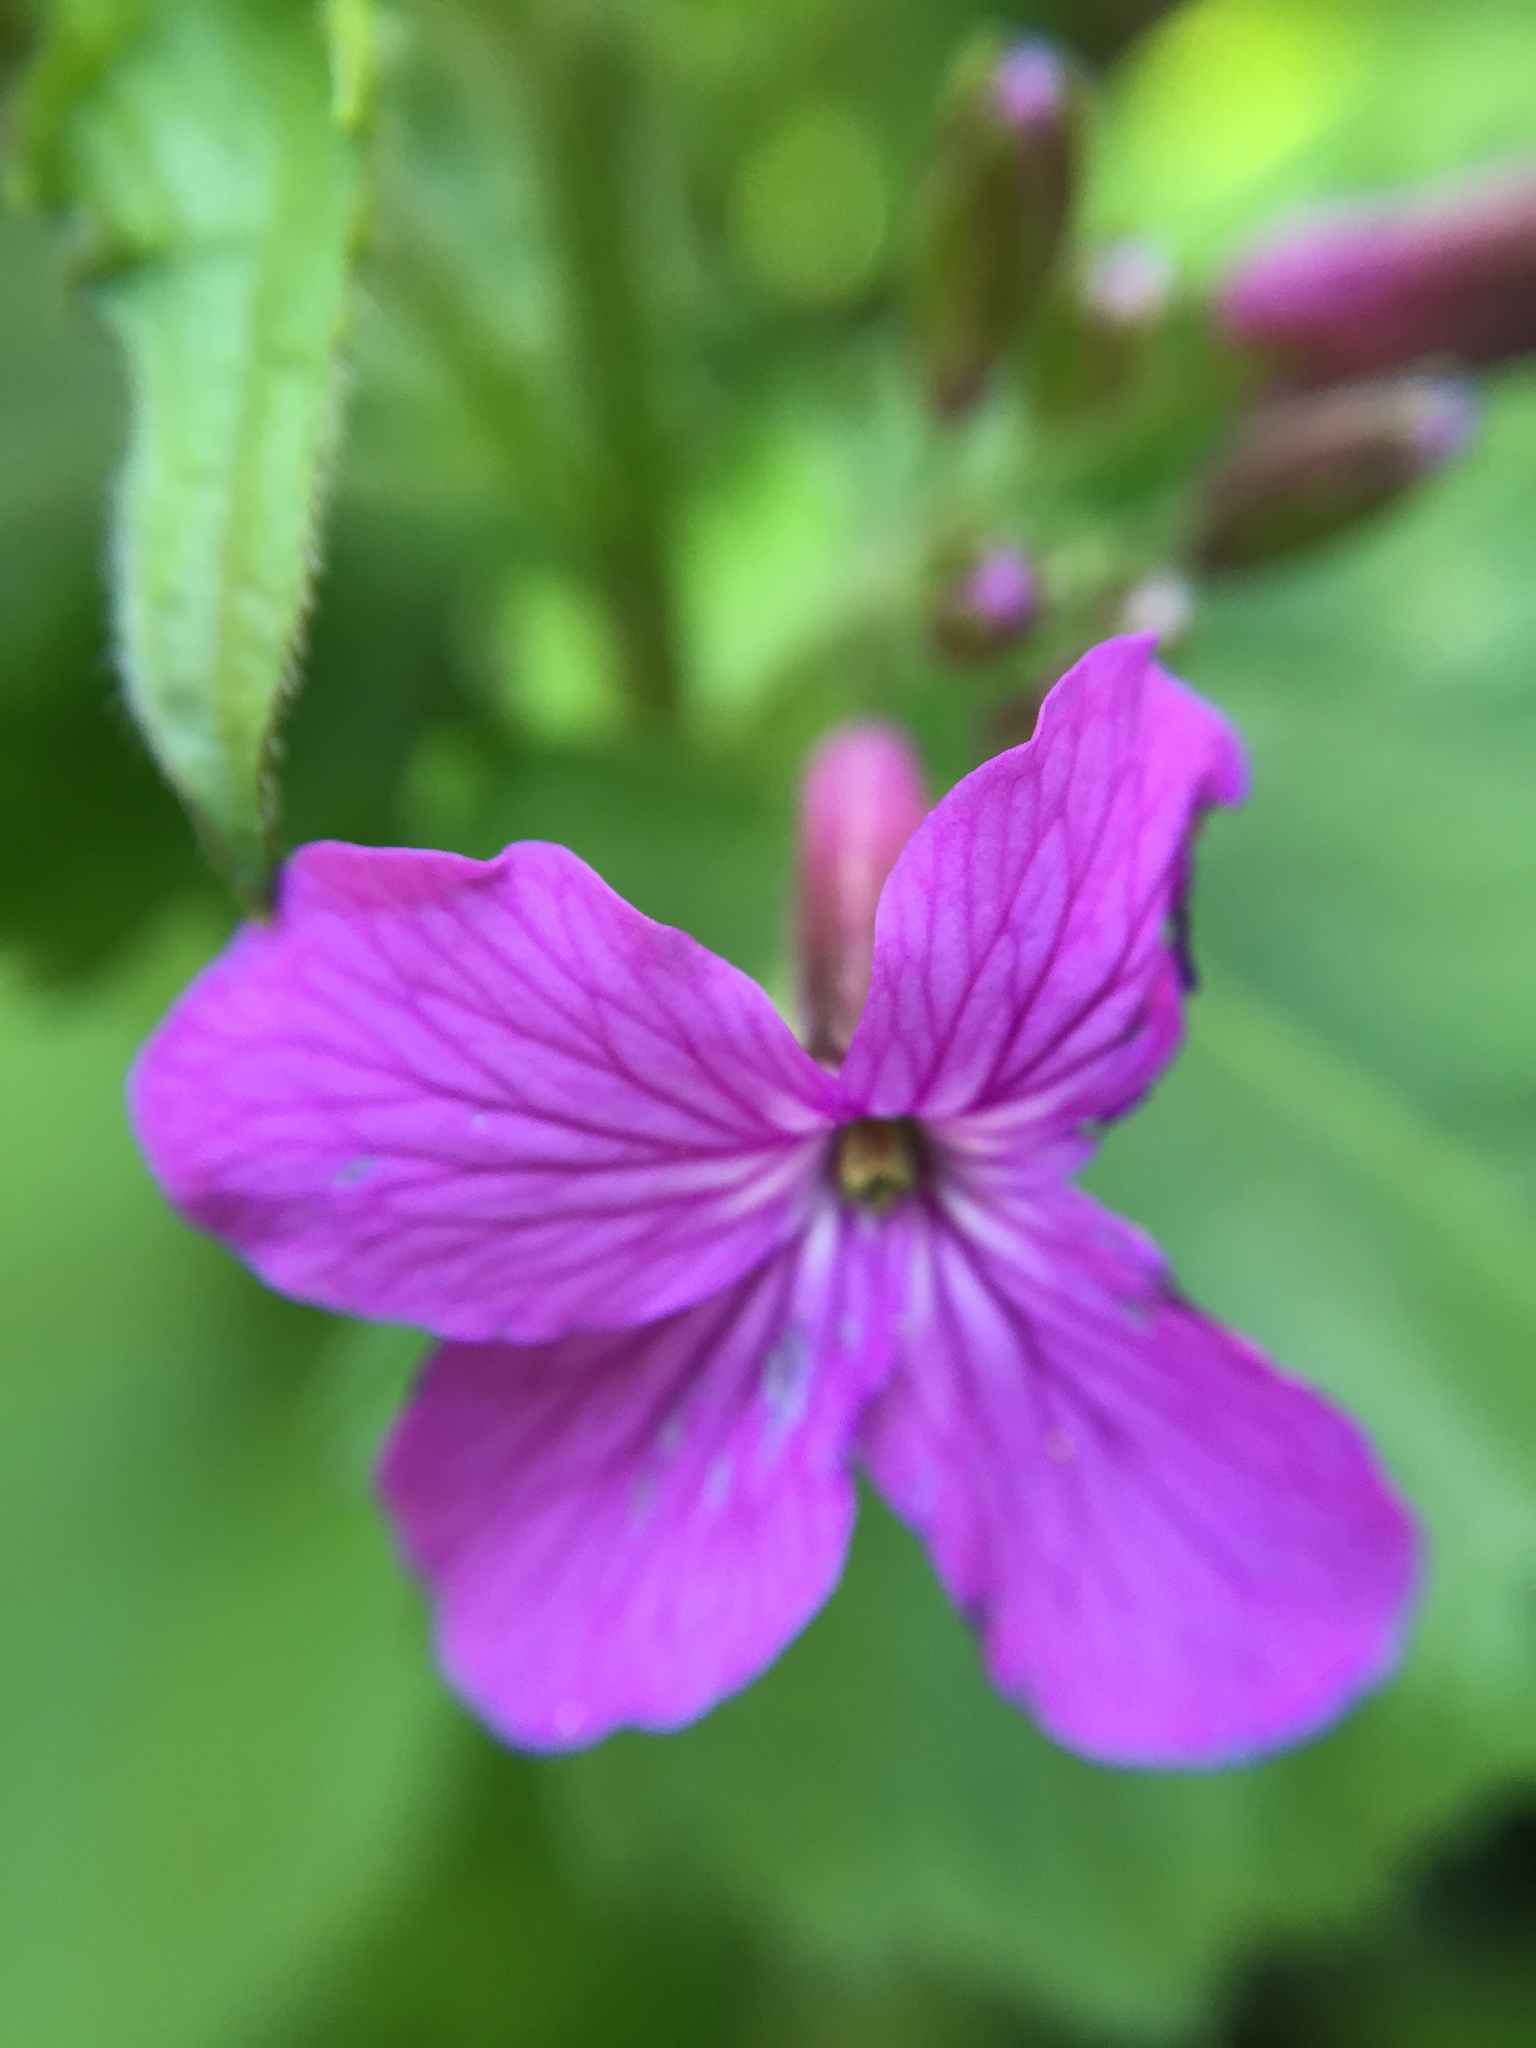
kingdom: Plantae
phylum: Tracheophyta
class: Magnoliopsida
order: Brassicales
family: Brassicaceae
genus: Lunaria
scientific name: Lunaria annua
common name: Honesty
